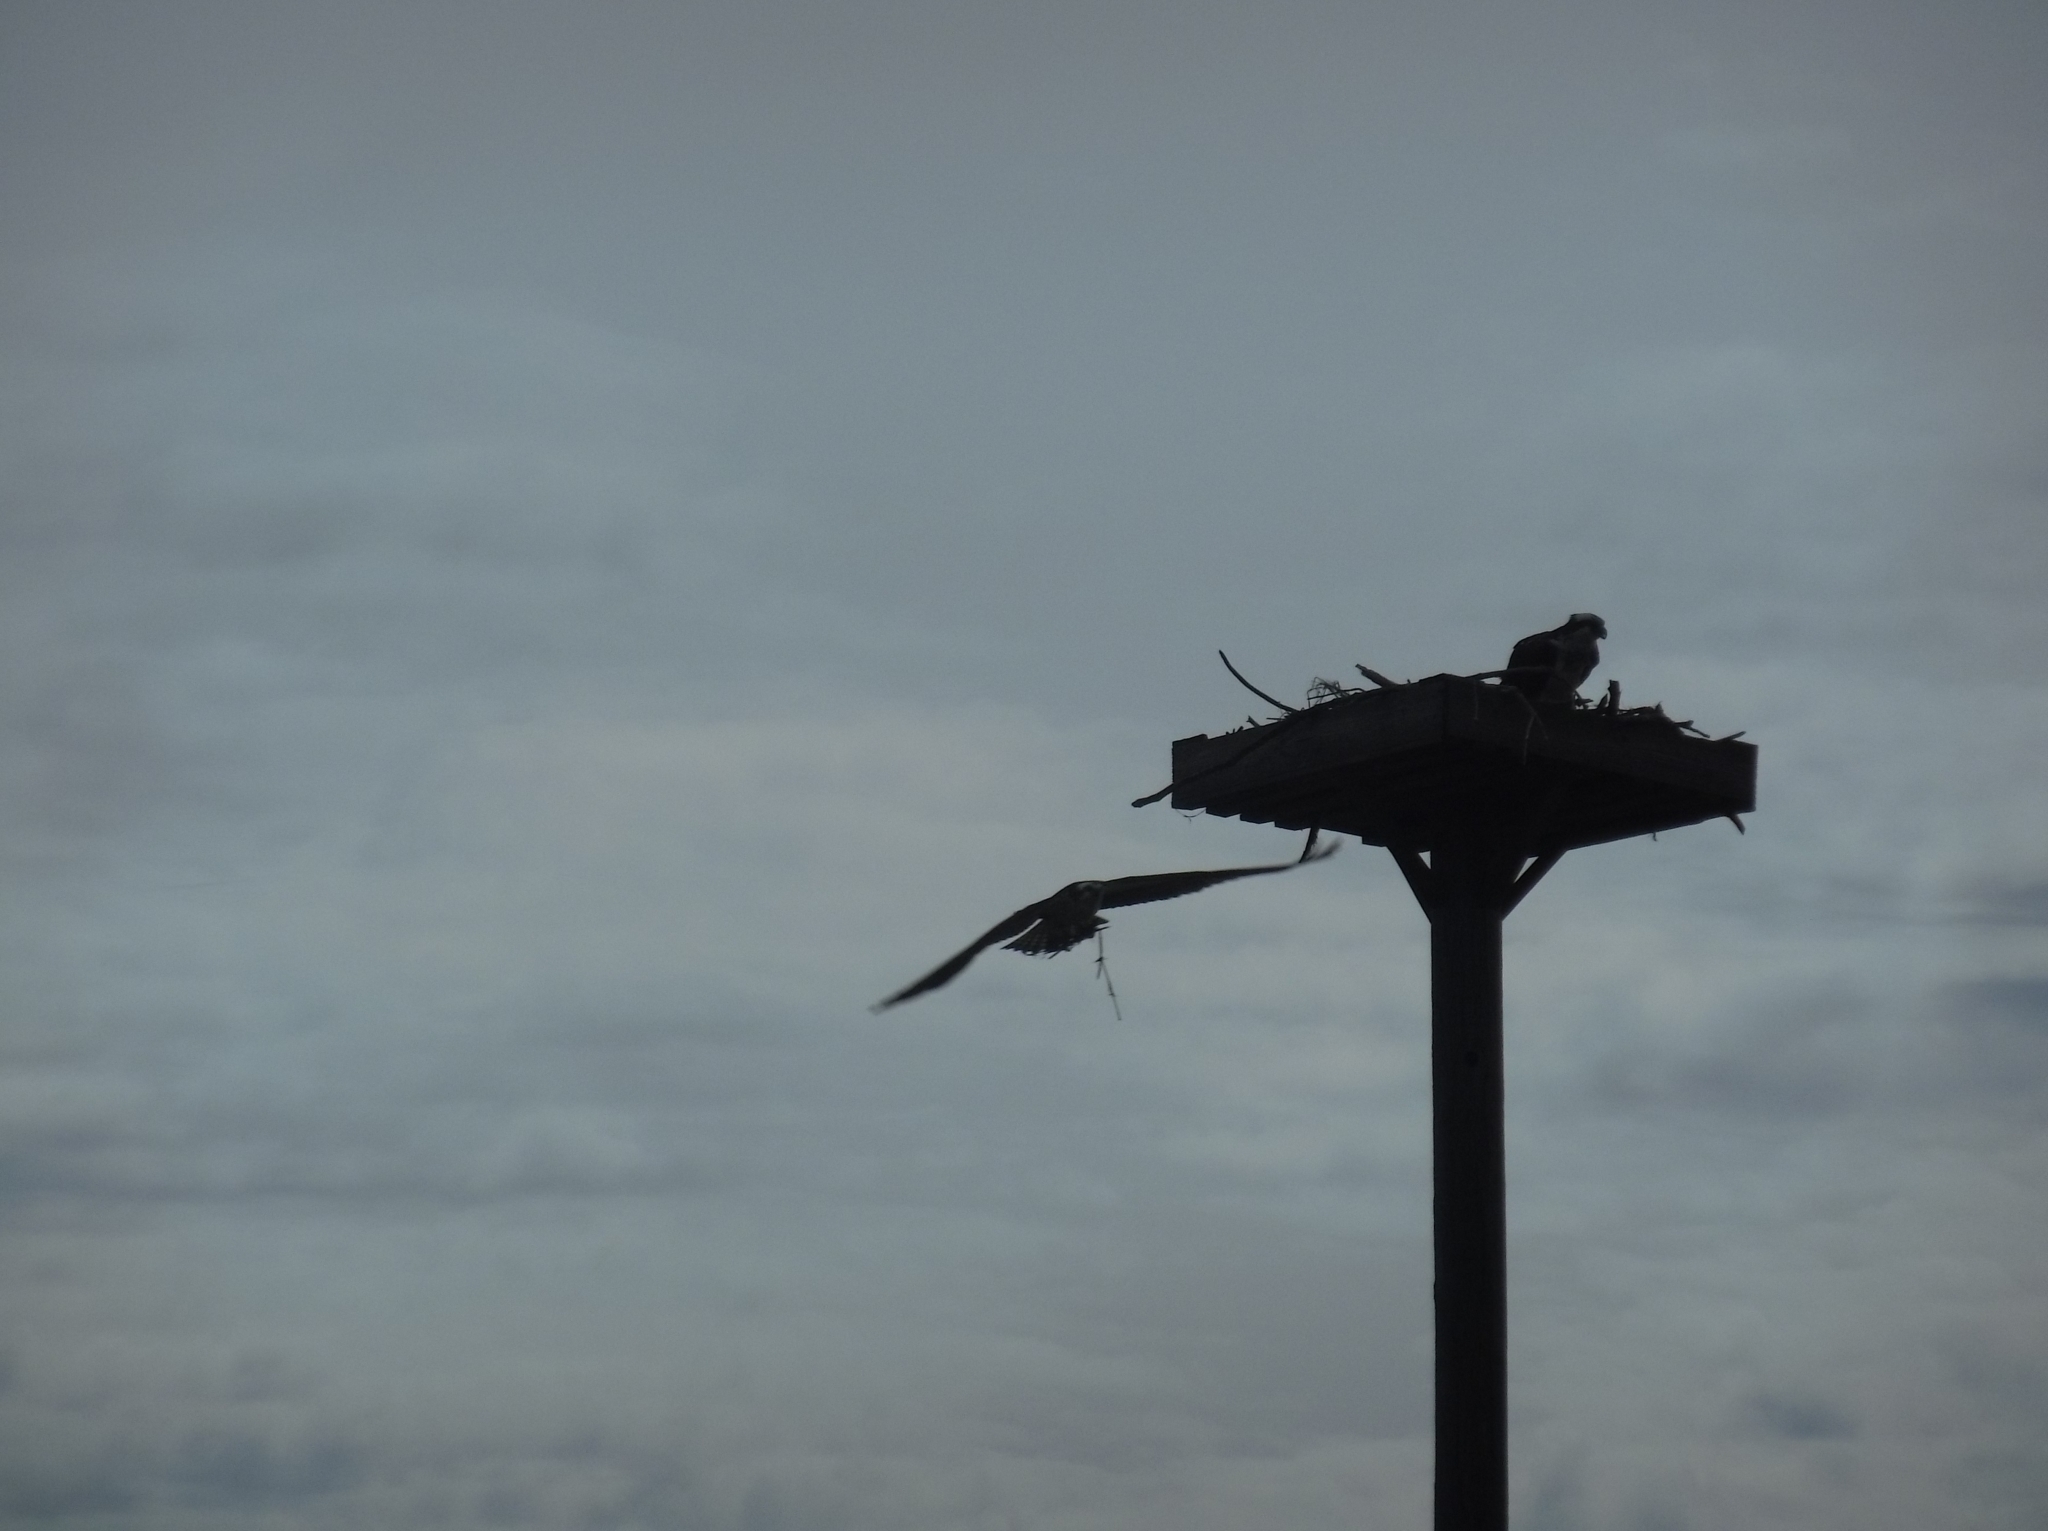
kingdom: Animalia
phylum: Chordata
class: Aves
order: Accipitriformes
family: Pandionidae
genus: Pandion
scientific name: Pandion haliaetus
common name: Osprey
